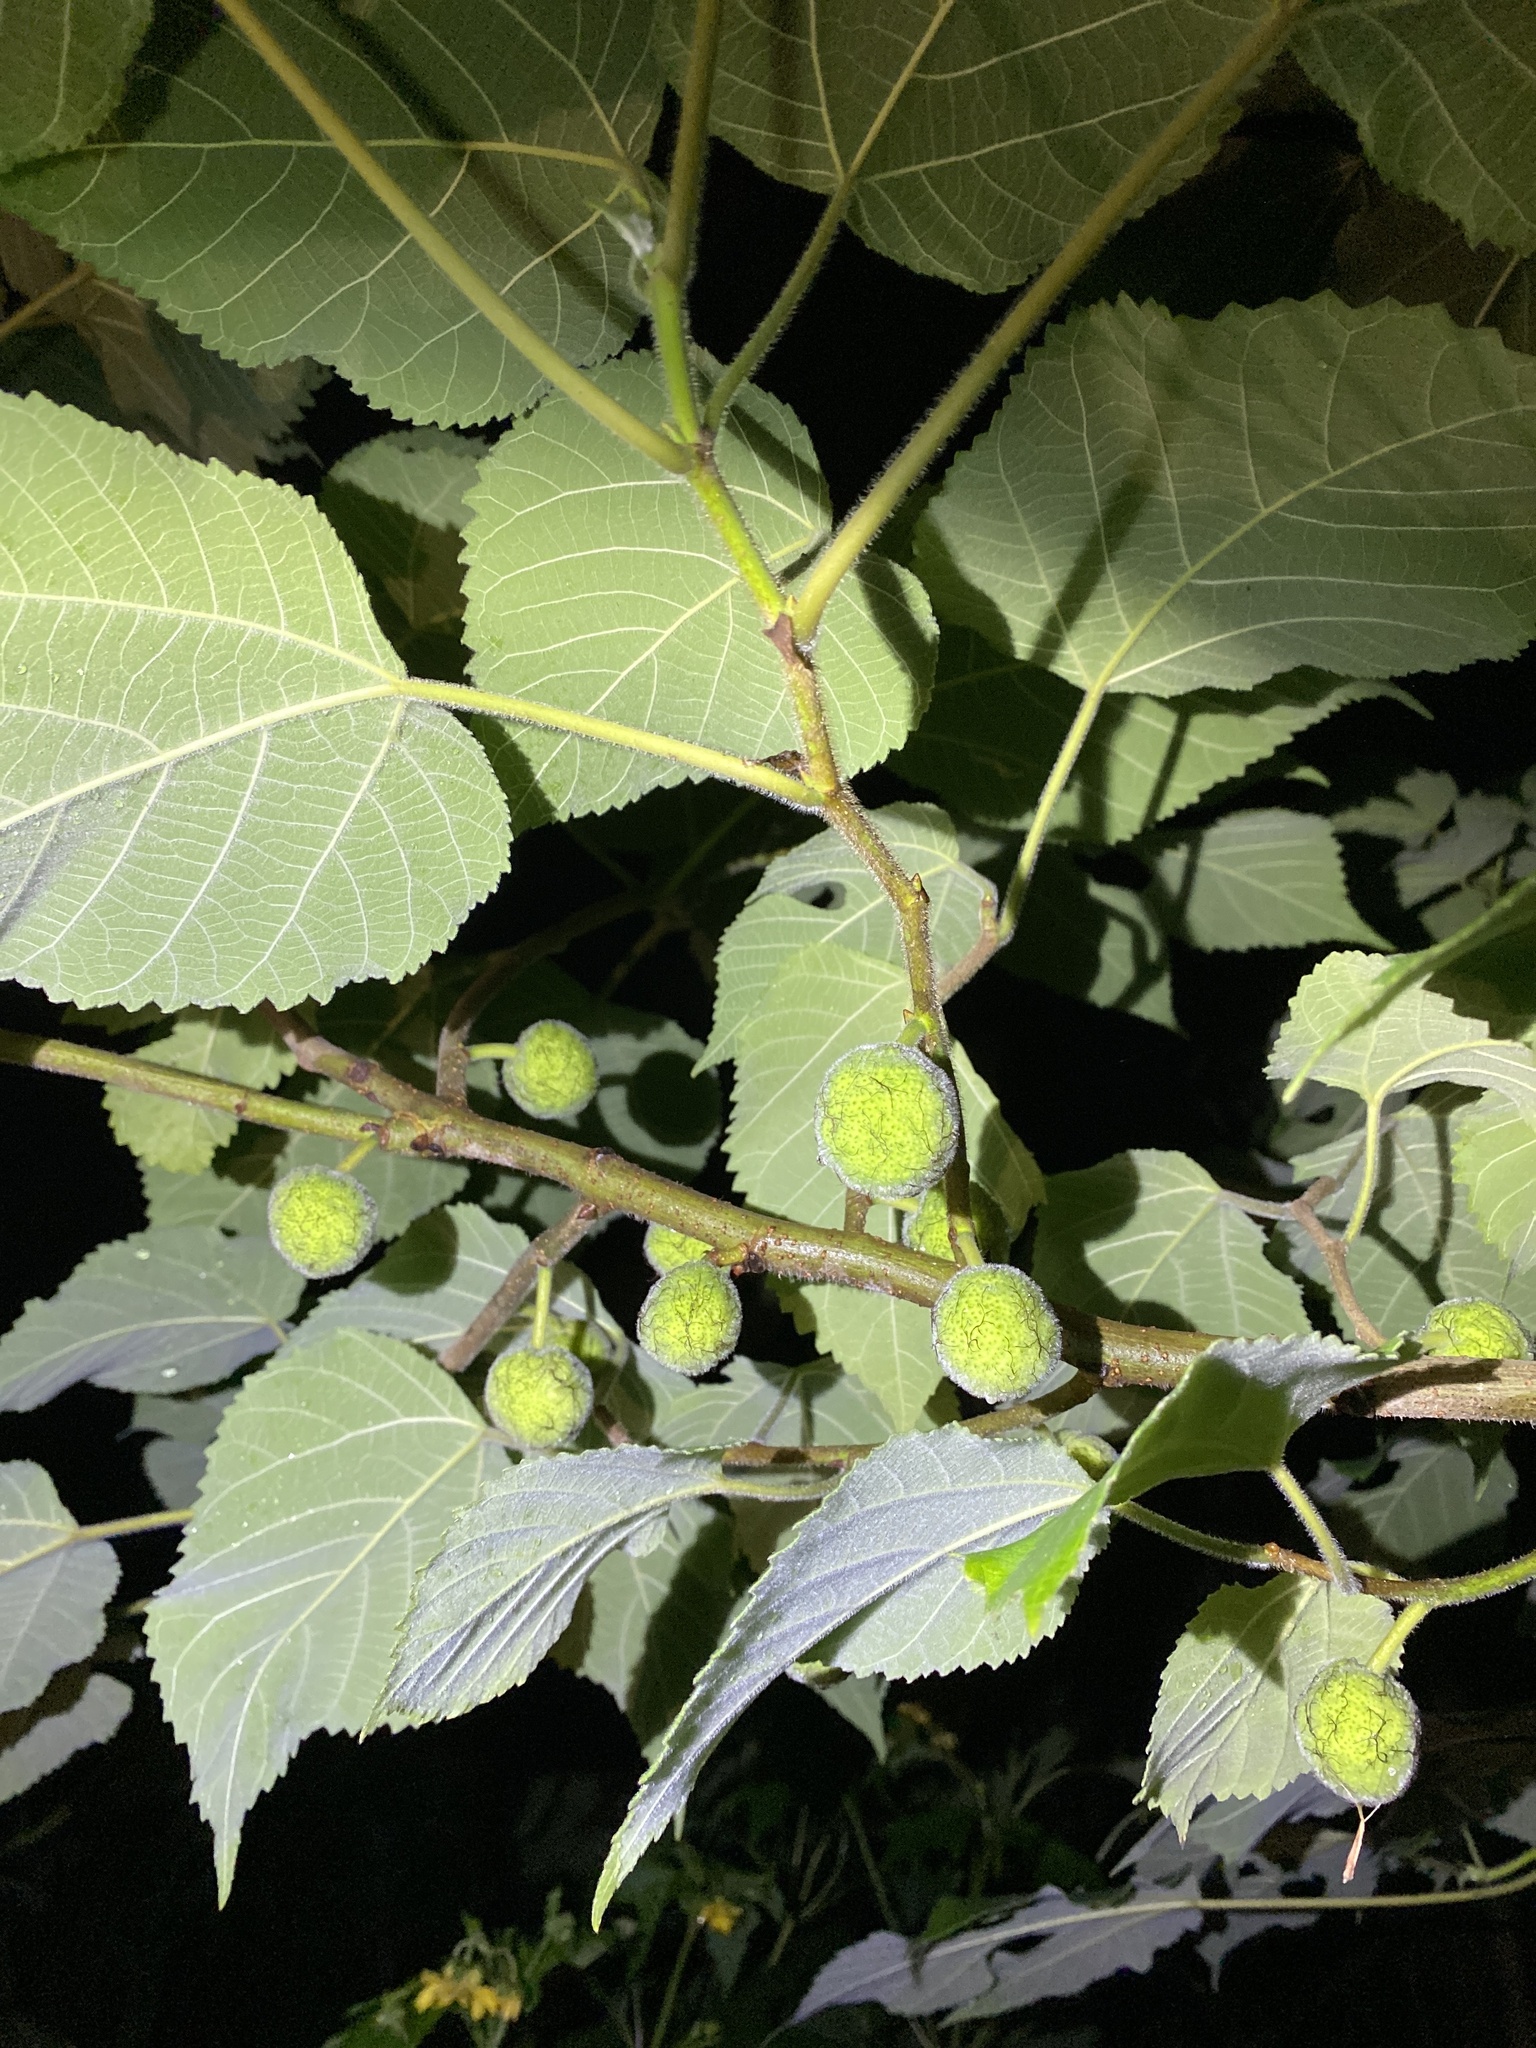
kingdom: Plantae
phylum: Tracheophyta
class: Magnoliopsida
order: Rosales
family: Moraceae
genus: Broussonetia
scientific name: Broussonetia papyrifera
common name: Paper mulberry
